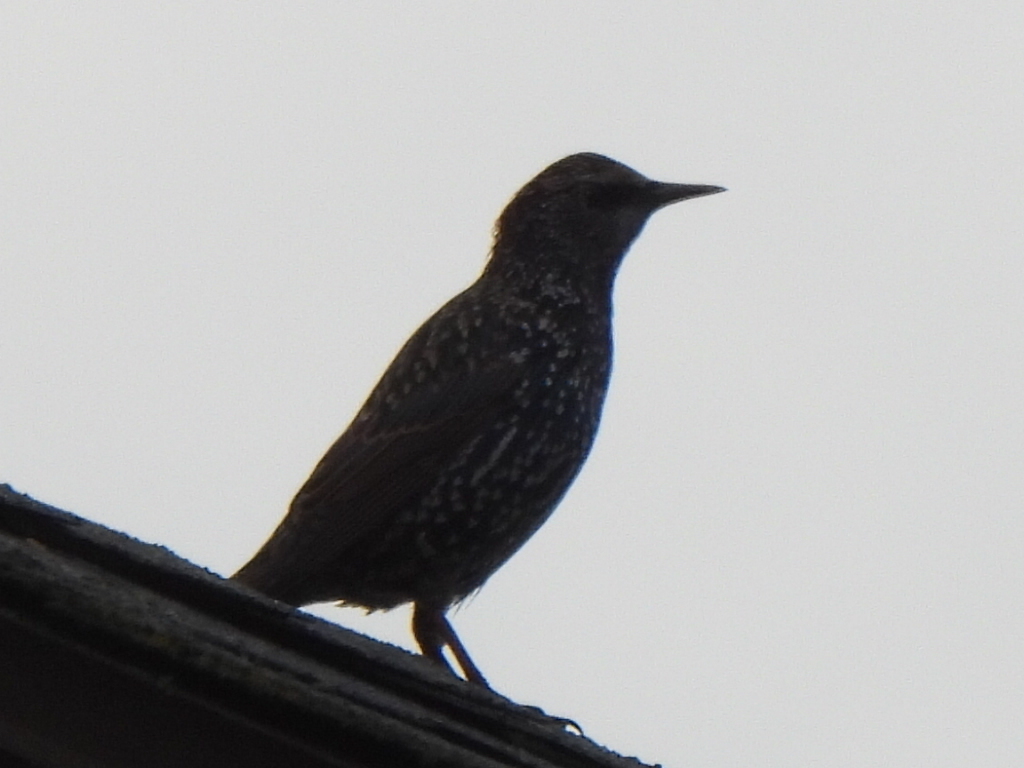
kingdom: Animalia
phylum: Chordata
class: Aves
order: Passeriformes
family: Sturnidae
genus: Sturnus
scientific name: Sturnus vulgaris
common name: Common starling
